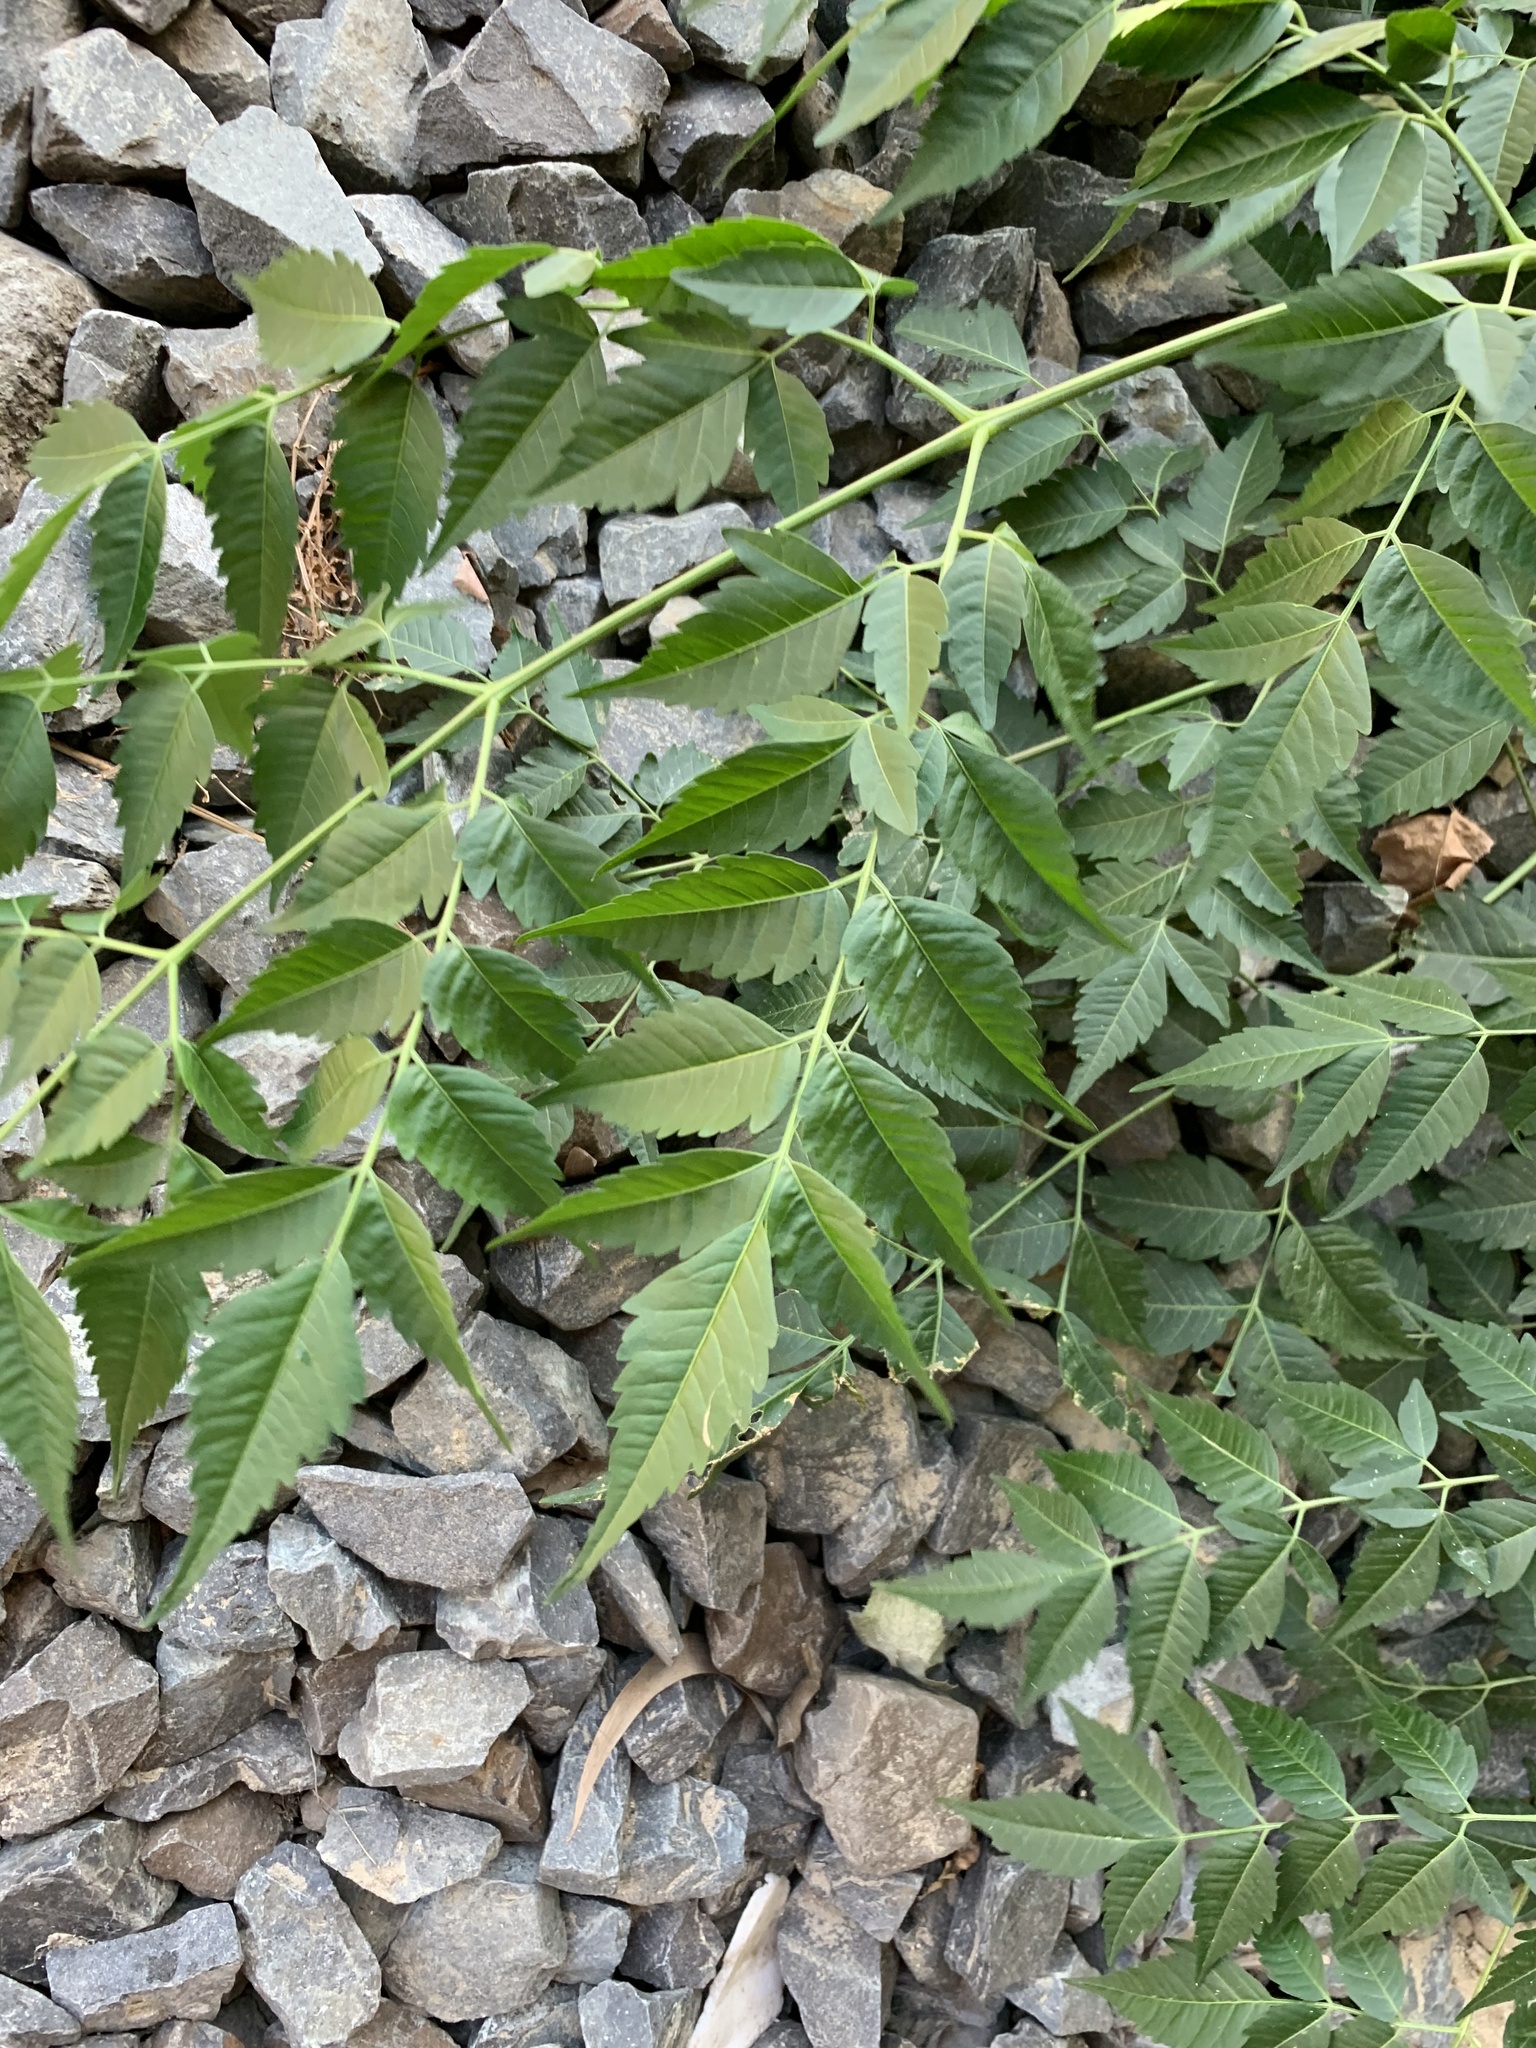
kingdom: Plantae
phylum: Tracheophyta
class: Magnoliopsida
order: Sapindales
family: Meliaceae
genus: Melia
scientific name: Melia azedarach
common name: Chinaberrytree
